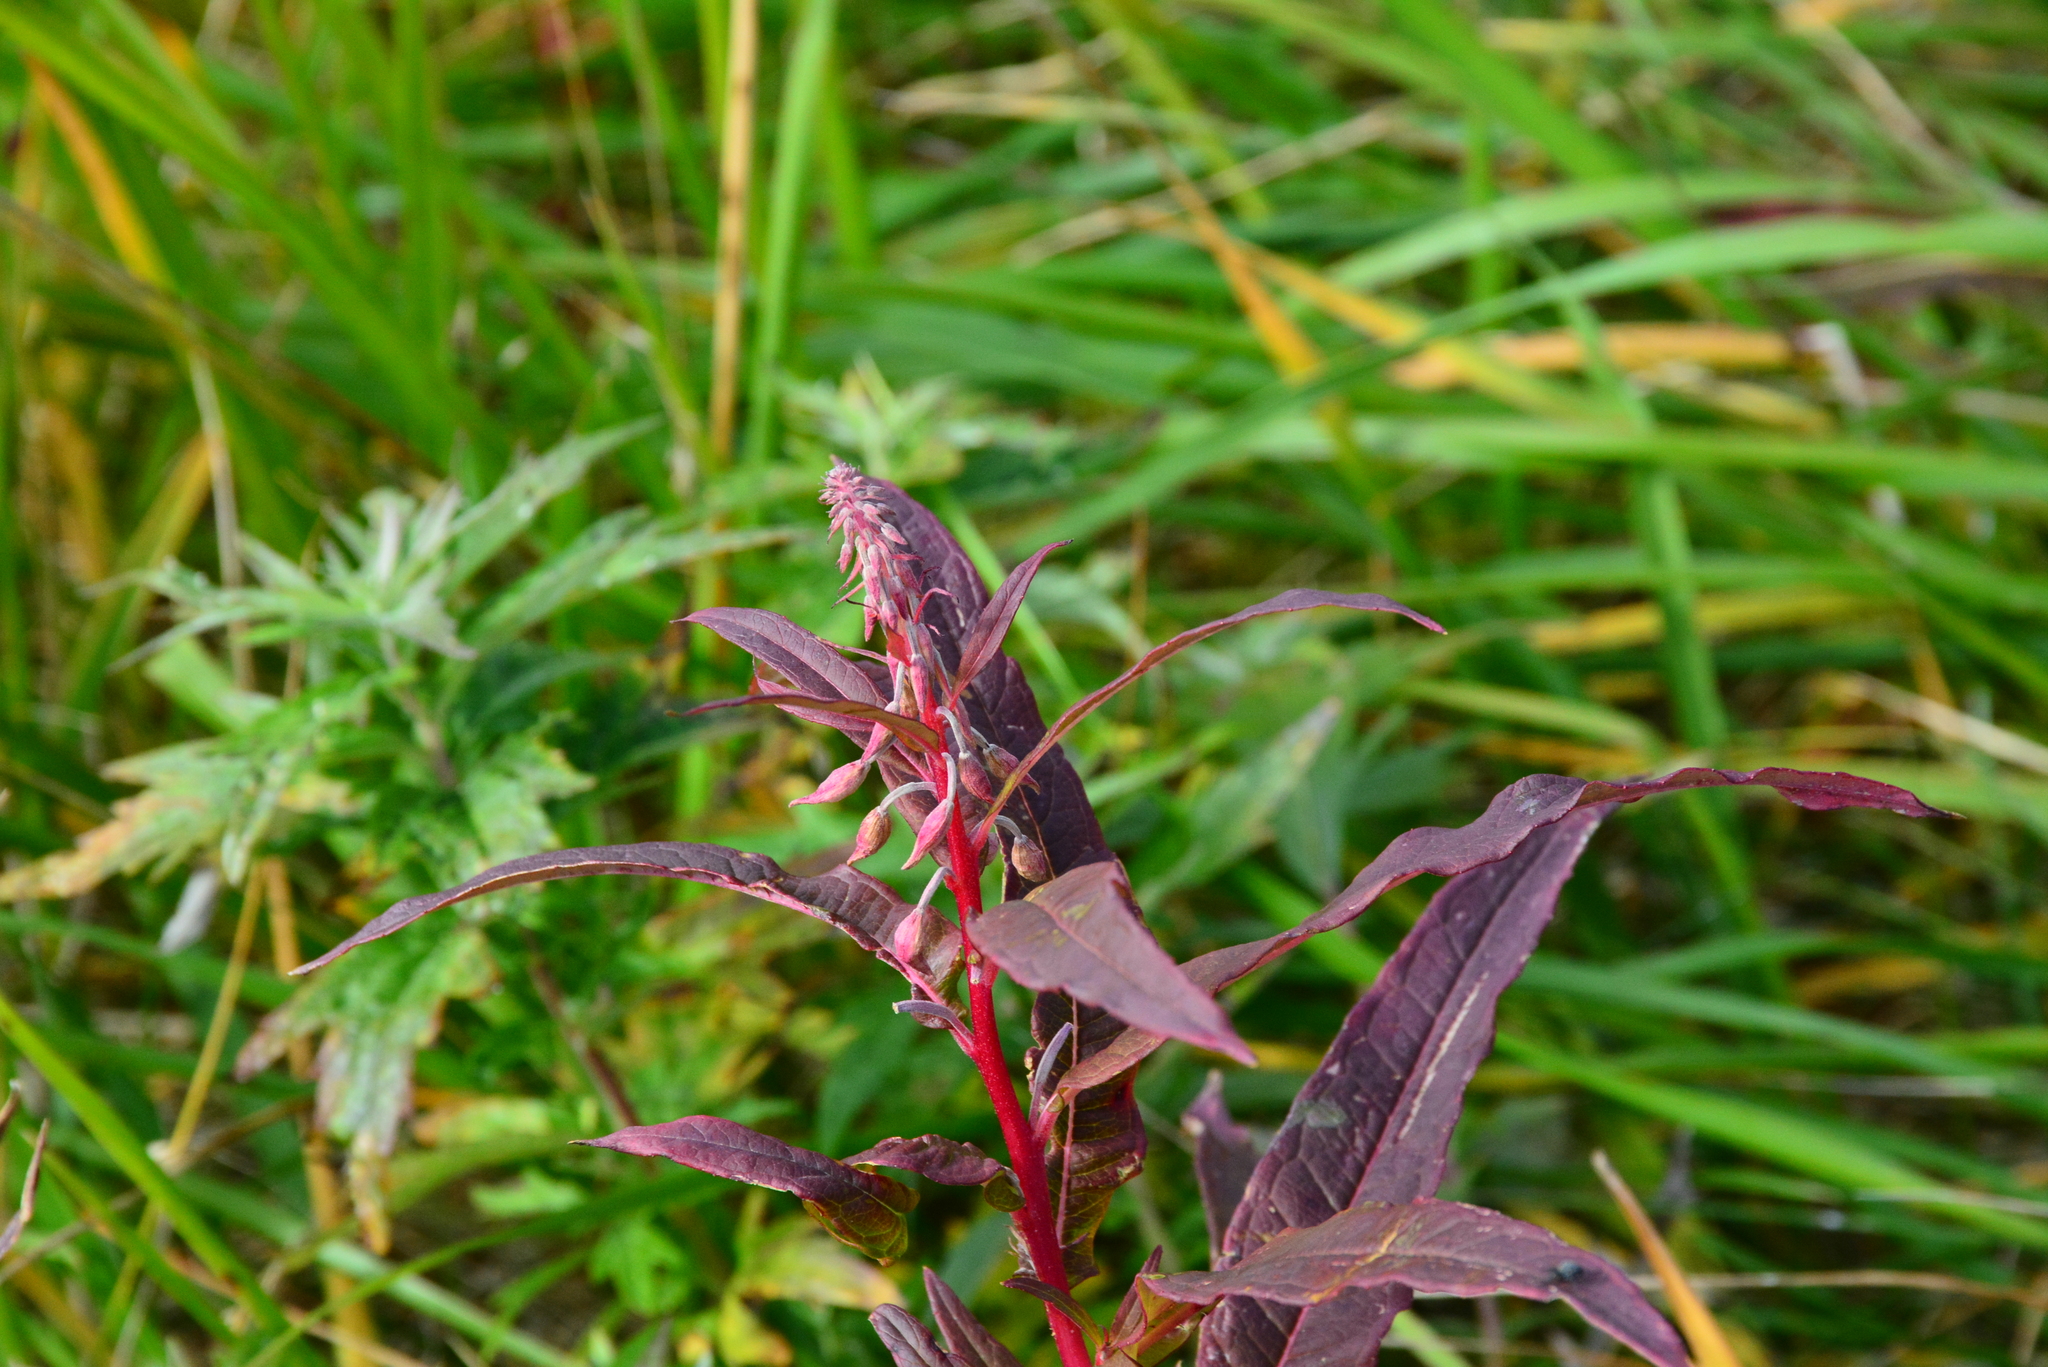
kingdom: Plantae
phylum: Tracheophyta
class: Magnoliopsida
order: Myrtales
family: Onagraceae
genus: Chamaenerion
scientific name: Chamaenerion angustifolium
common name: Fireweed
